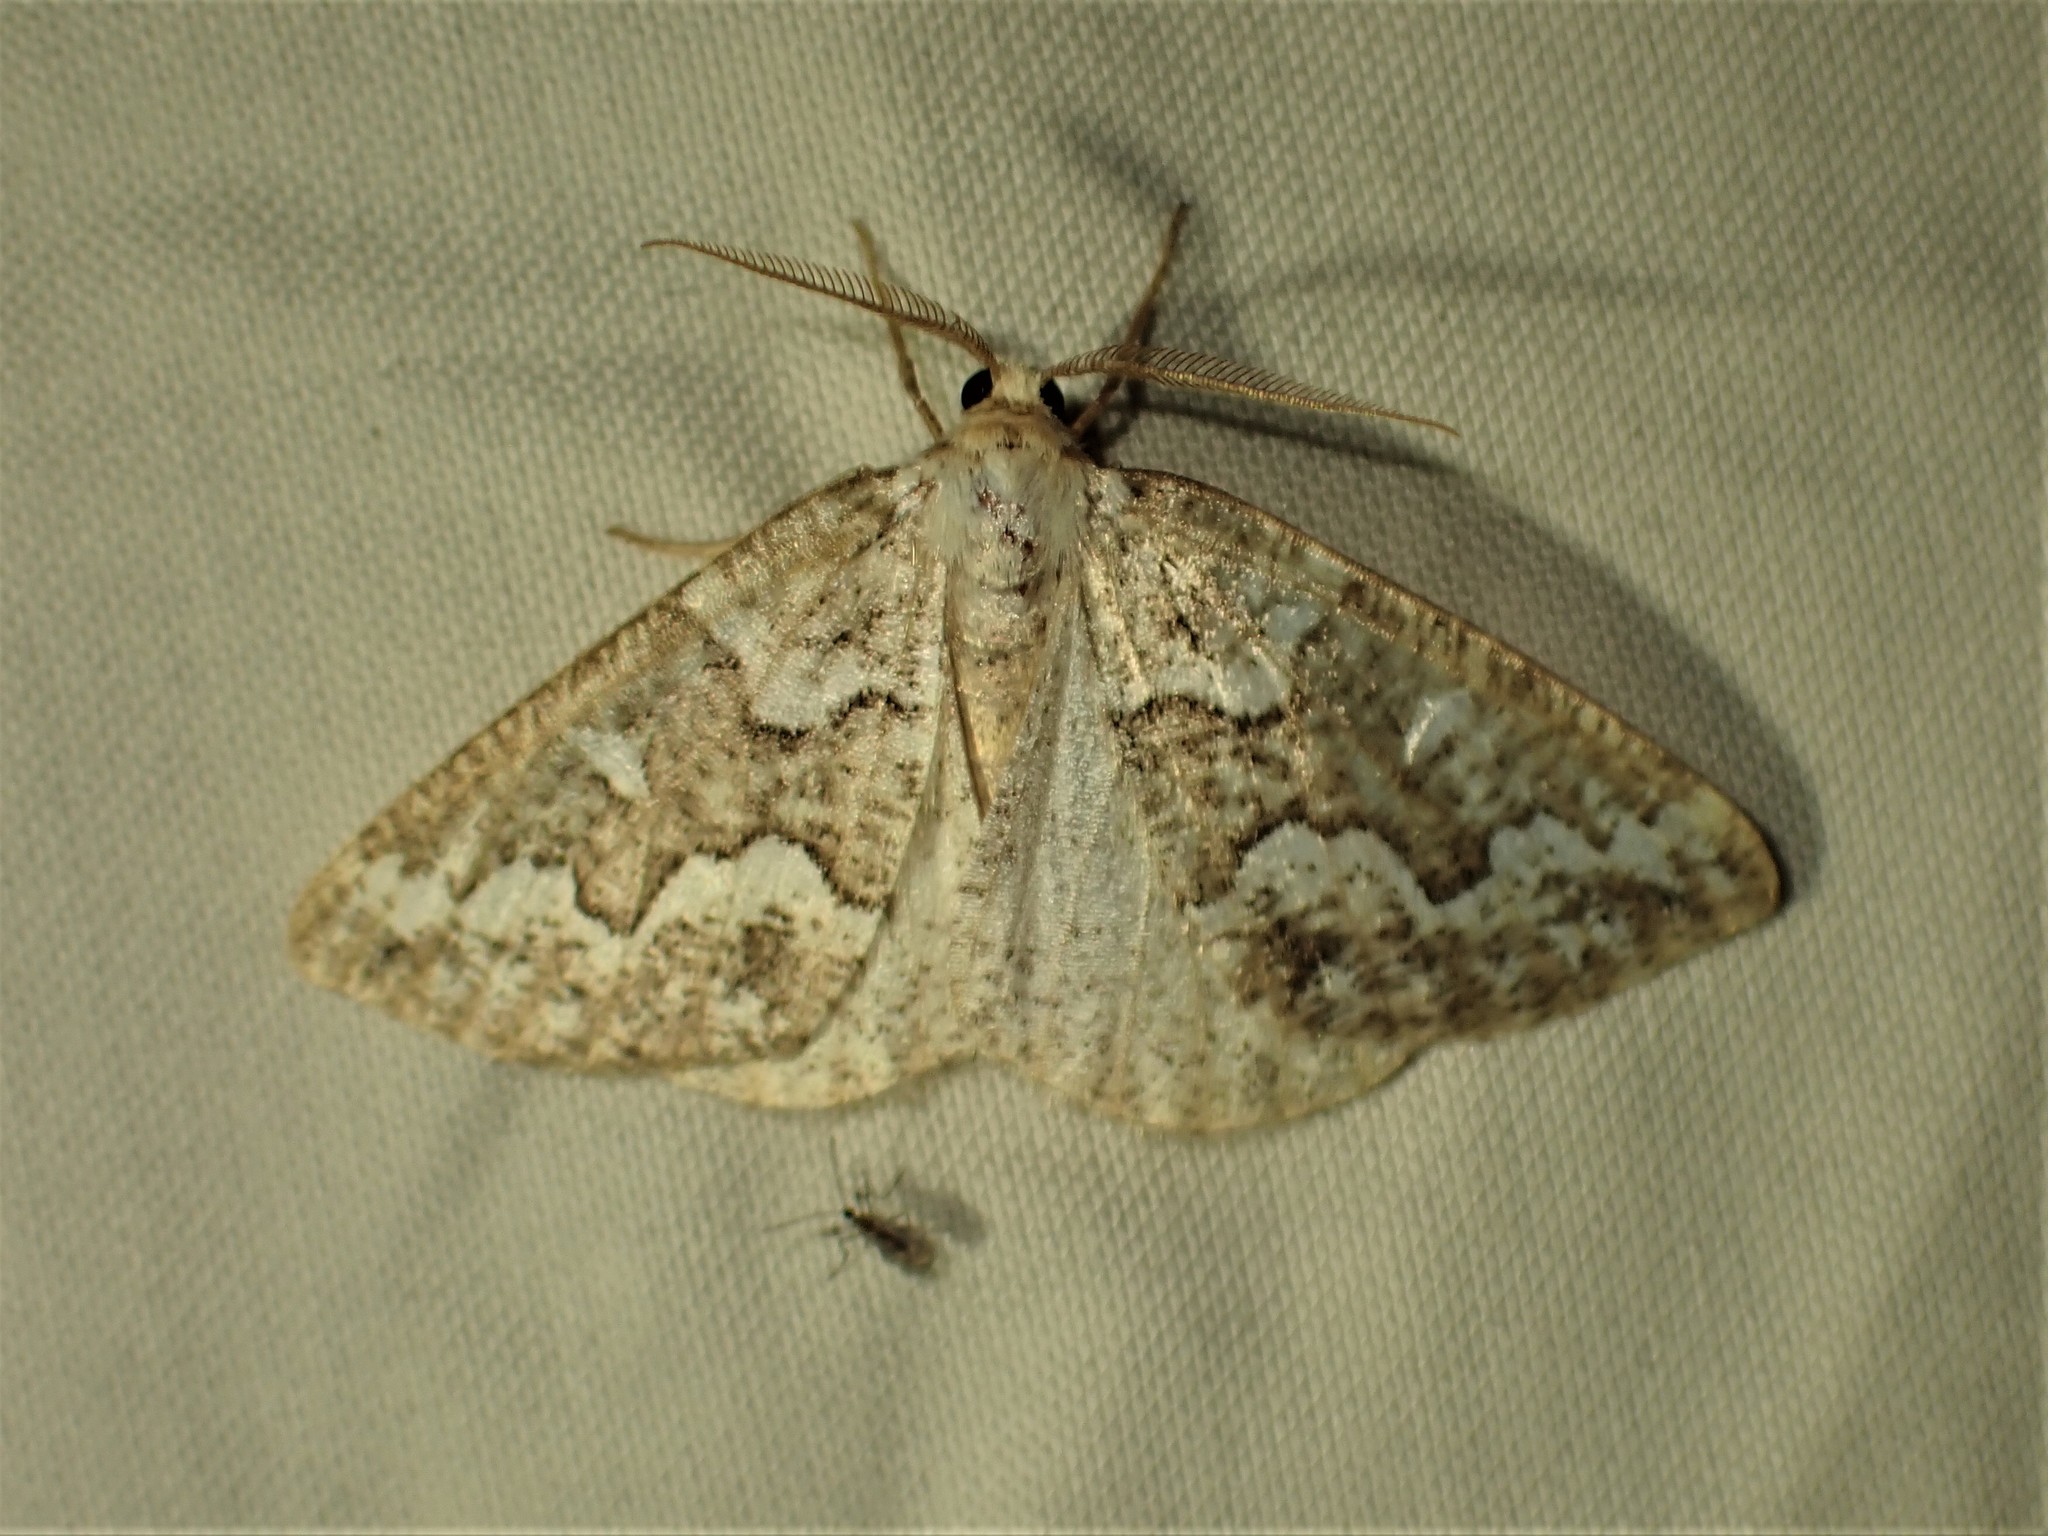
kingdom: Animalia
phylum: Arthropoda
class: Insecta
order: Lepidoptera
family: Geometridae
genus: Caripeta
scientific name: Caripeta divisata
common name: Gray spruce looper
